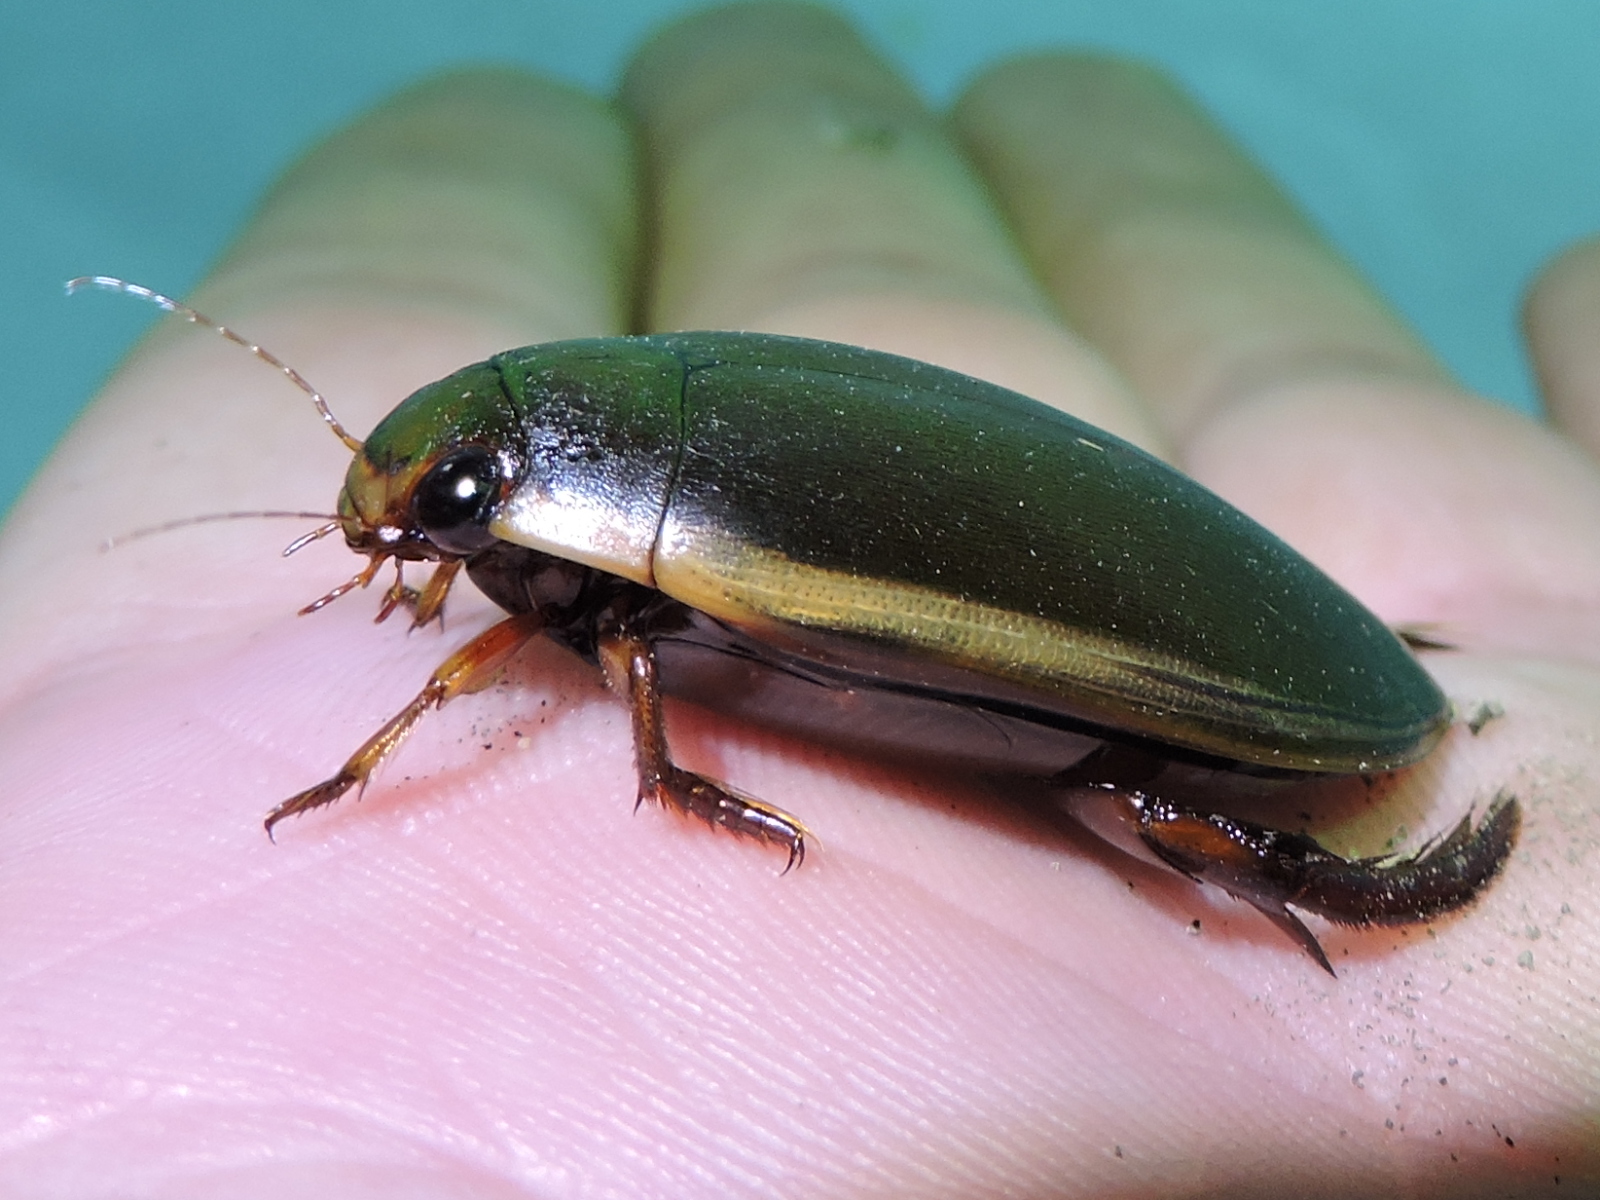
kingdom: Animalia
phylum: Arthropoda
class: Insecta
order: Coleoptera
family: Dytiscidae
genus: Cybister
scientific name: Cybister fimbriolatus
